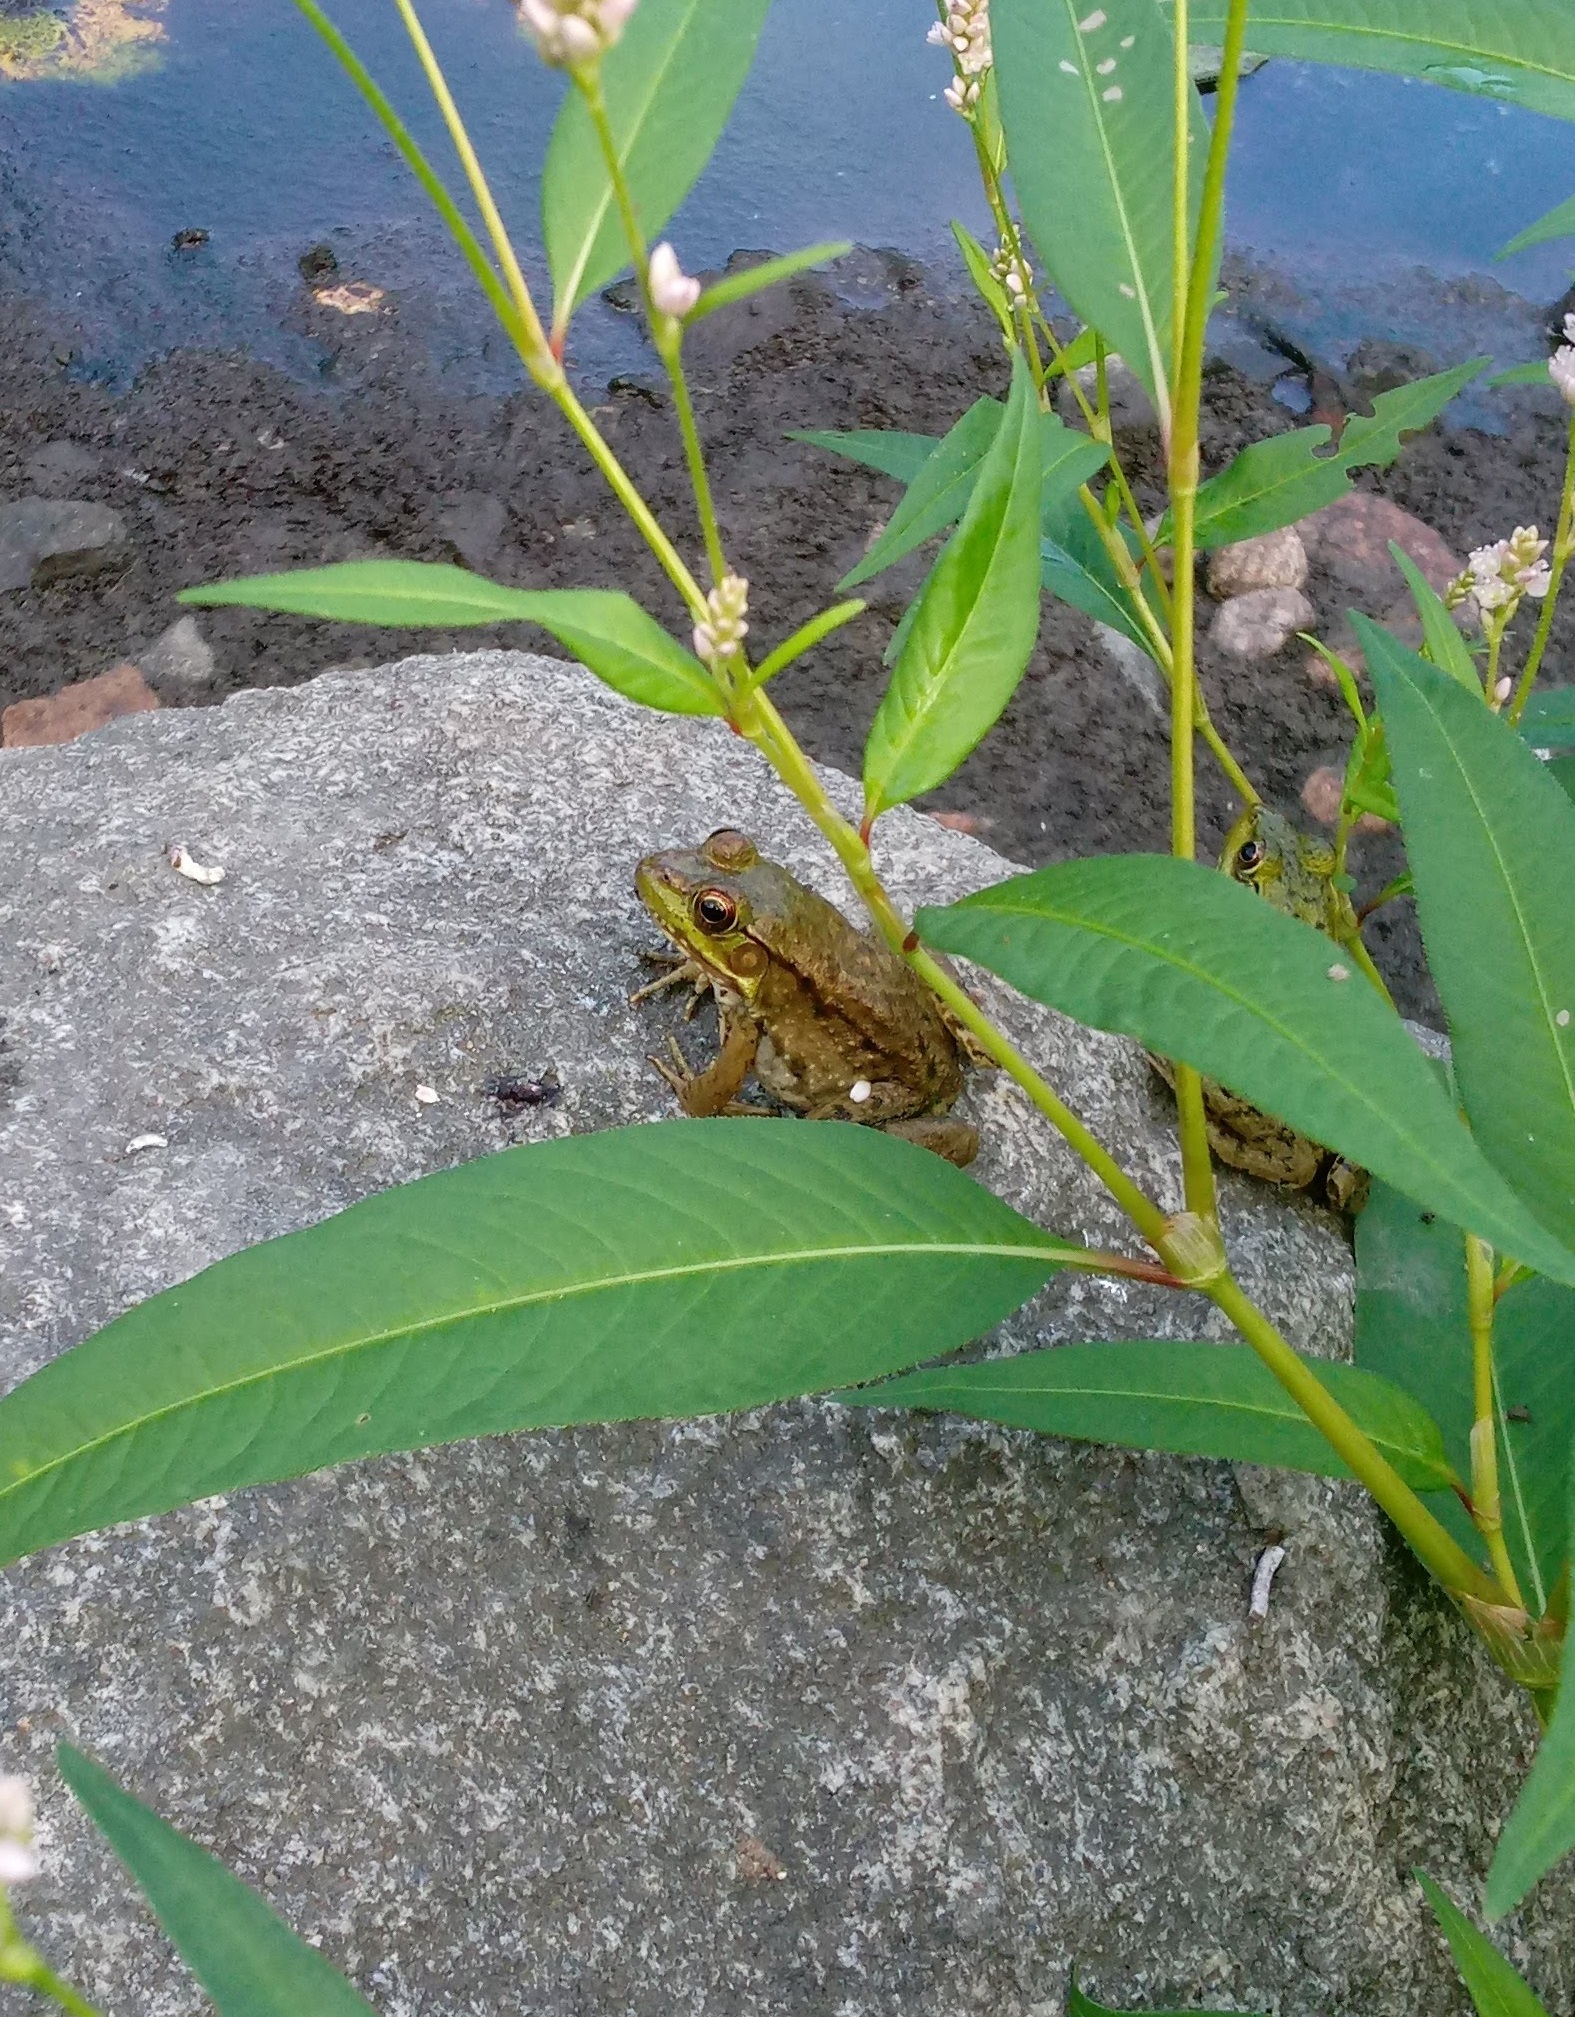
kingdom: Animalia
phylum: Chordata
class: Amphibia
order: Anura
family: Ranidae
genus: Lithobates
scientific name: Lithobates clamitans
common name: Green frog
